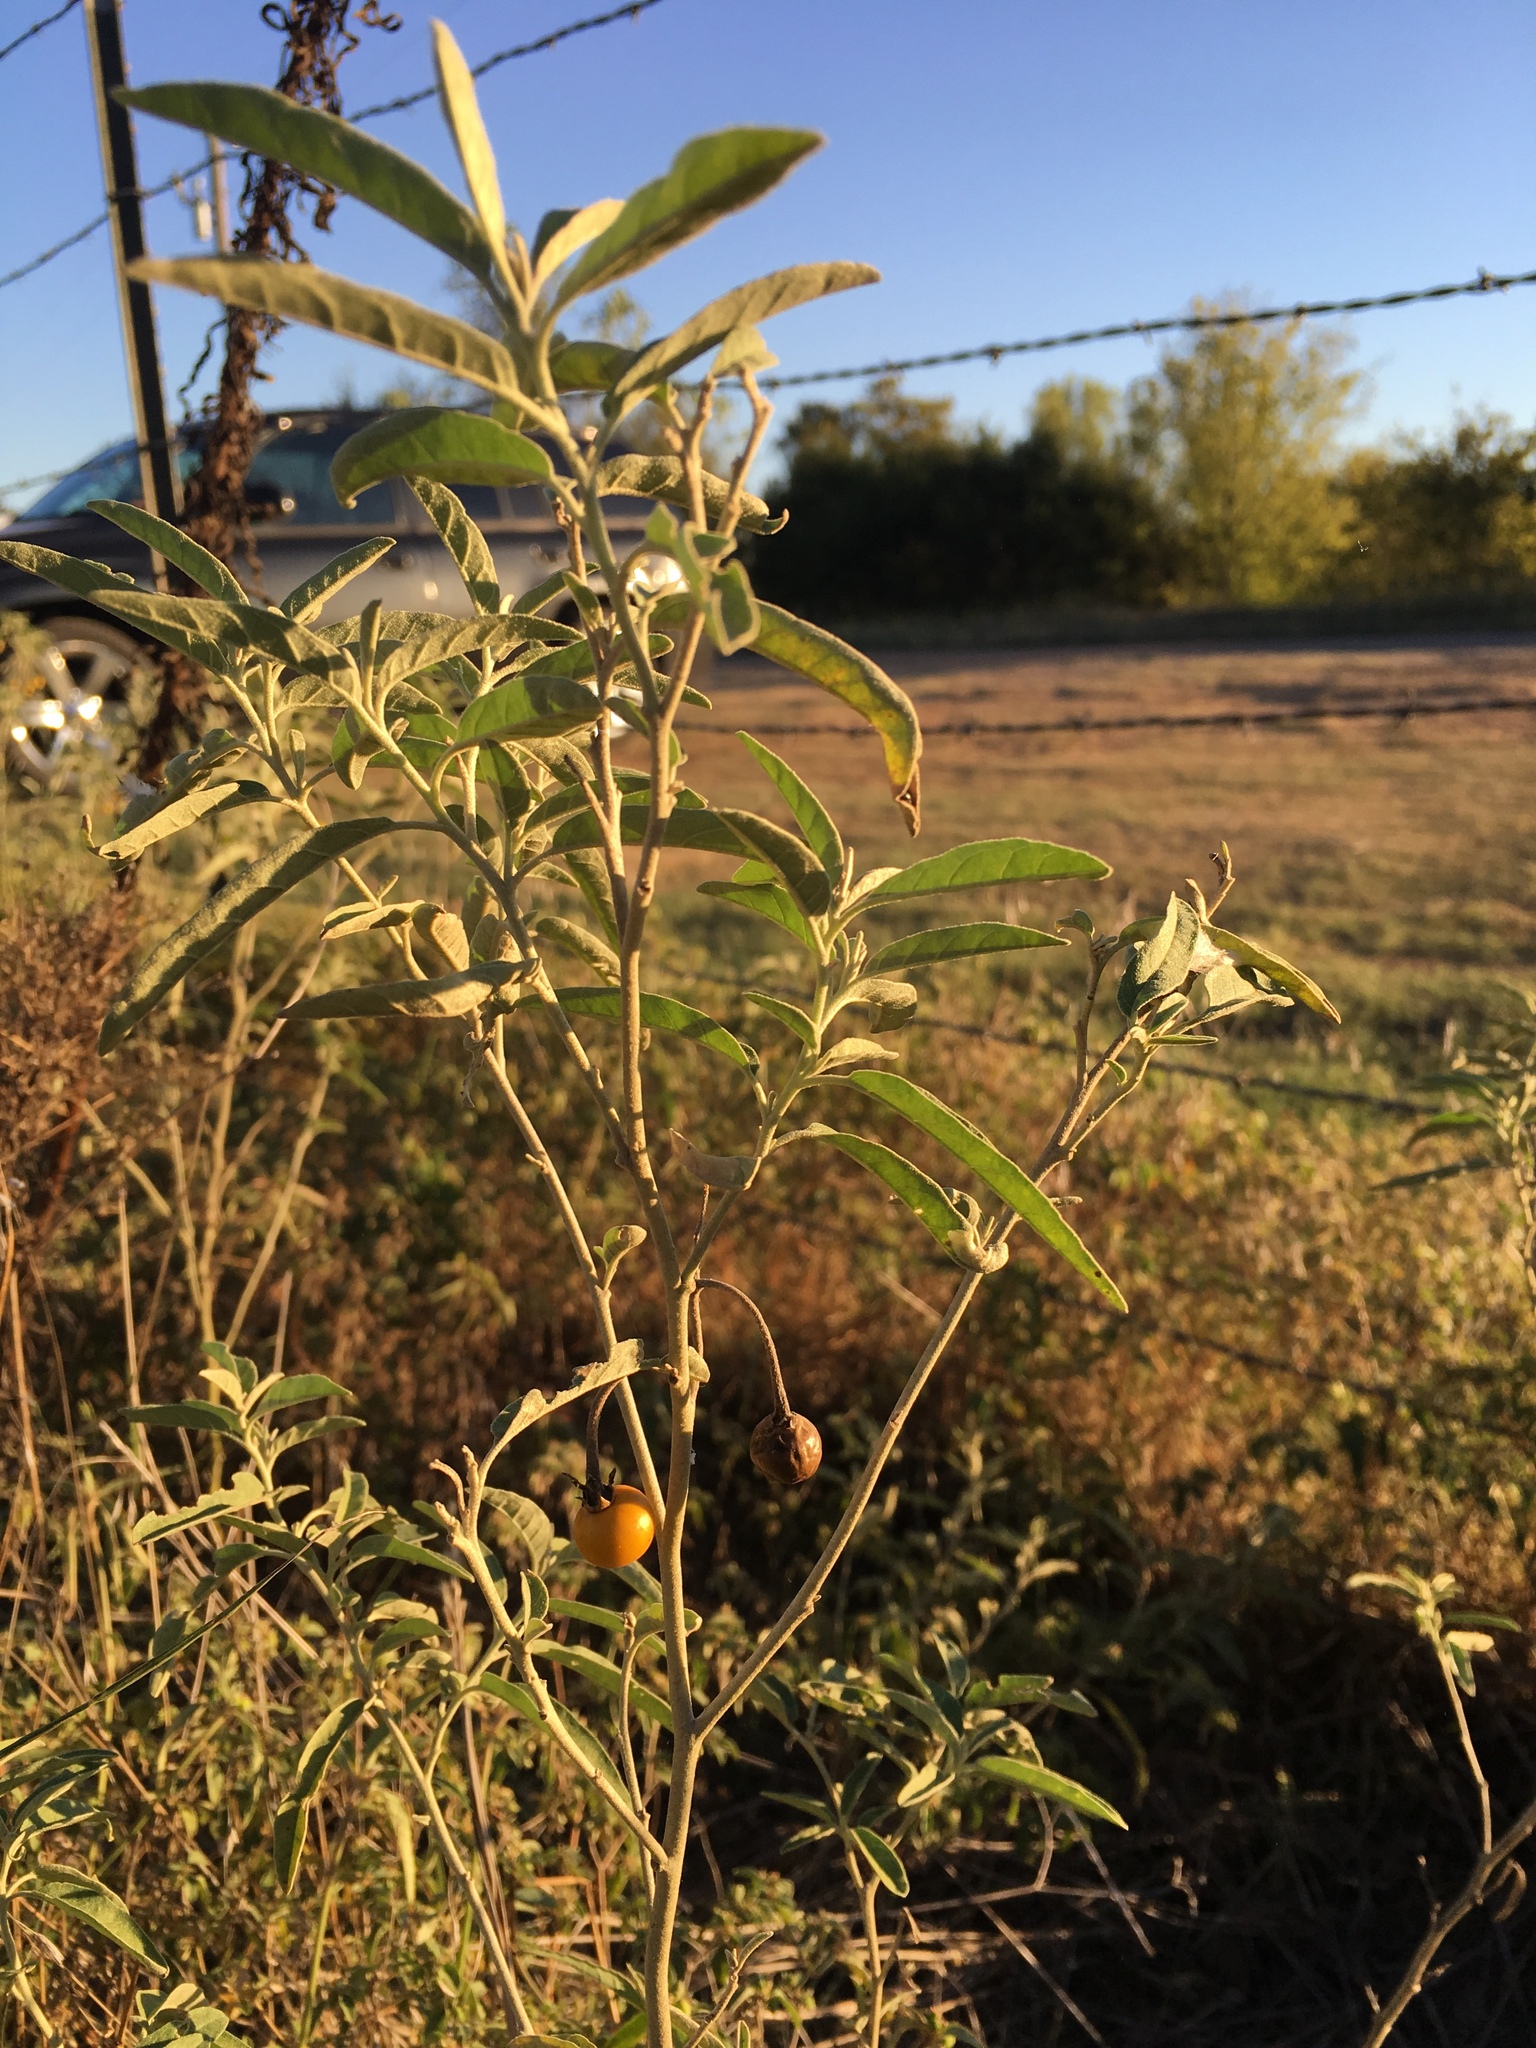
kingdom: Plantae
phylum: Tracheophyta
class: Magnoliopsida
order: Solanales
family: Solanaceae
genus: Solanum
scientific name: Solanum elaeagnifolium
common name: Silverleaf nightshade
